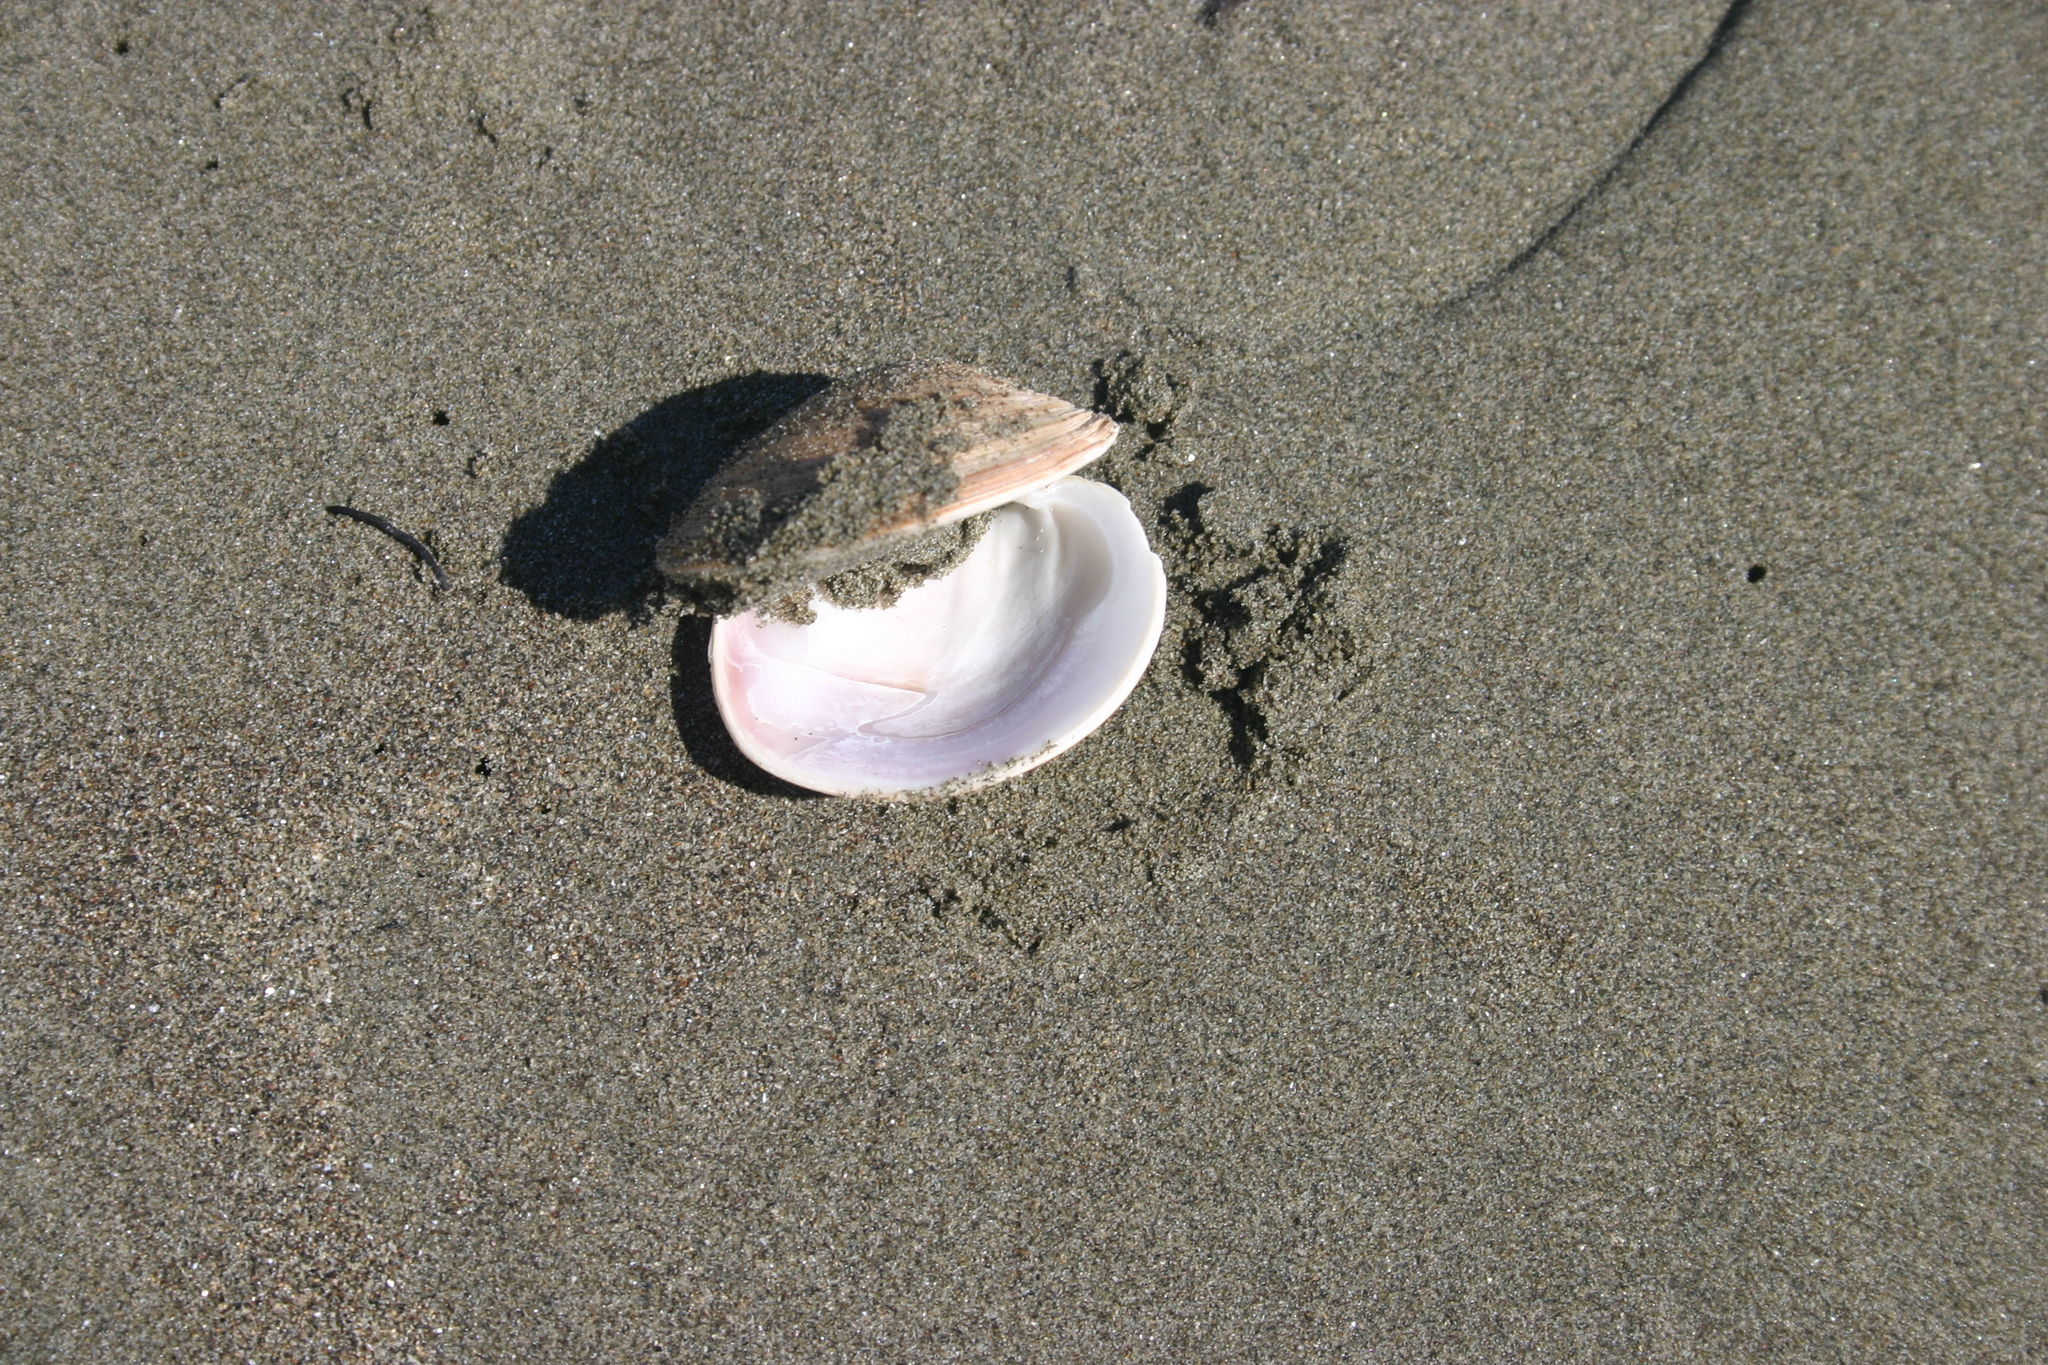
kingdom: Animalia
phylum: Mollusca
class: Bivalvia
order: Venerida
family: Veneridae
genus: Dosinia
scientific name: Dosinia anus
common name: Old-woman dosinia
